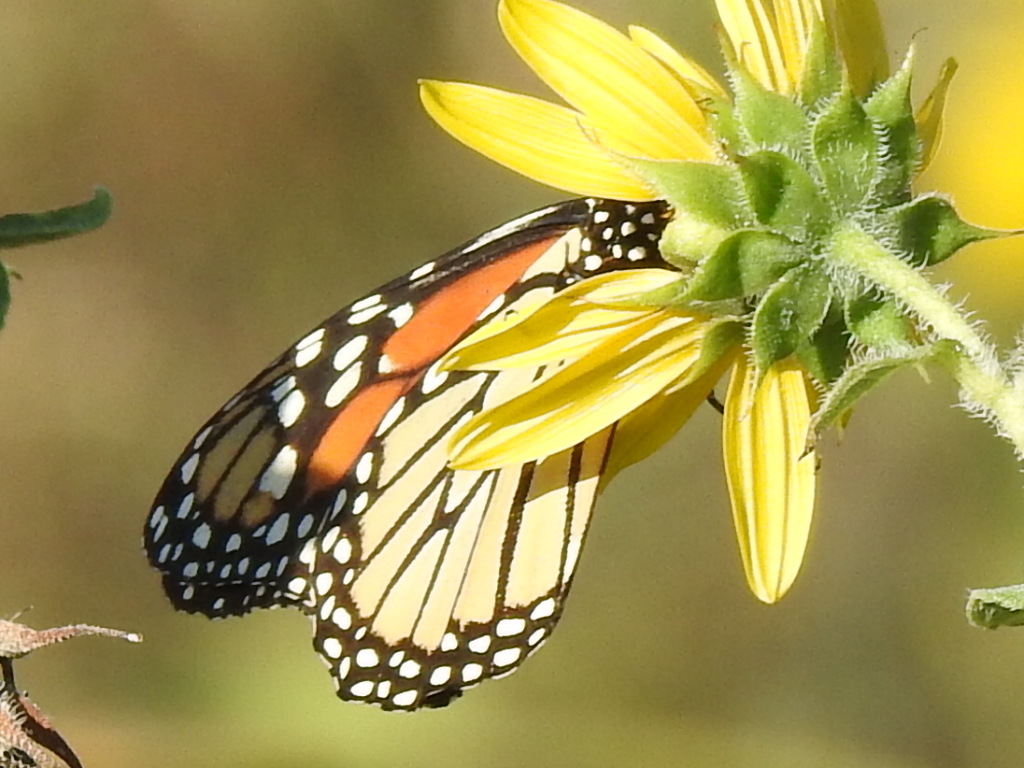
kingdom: Animalia
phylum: Arthropoda
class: Insecta
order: Lepidoptera
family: Nymphalidae
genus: Danaus
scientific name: Danaus plexippus
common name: Monarch
